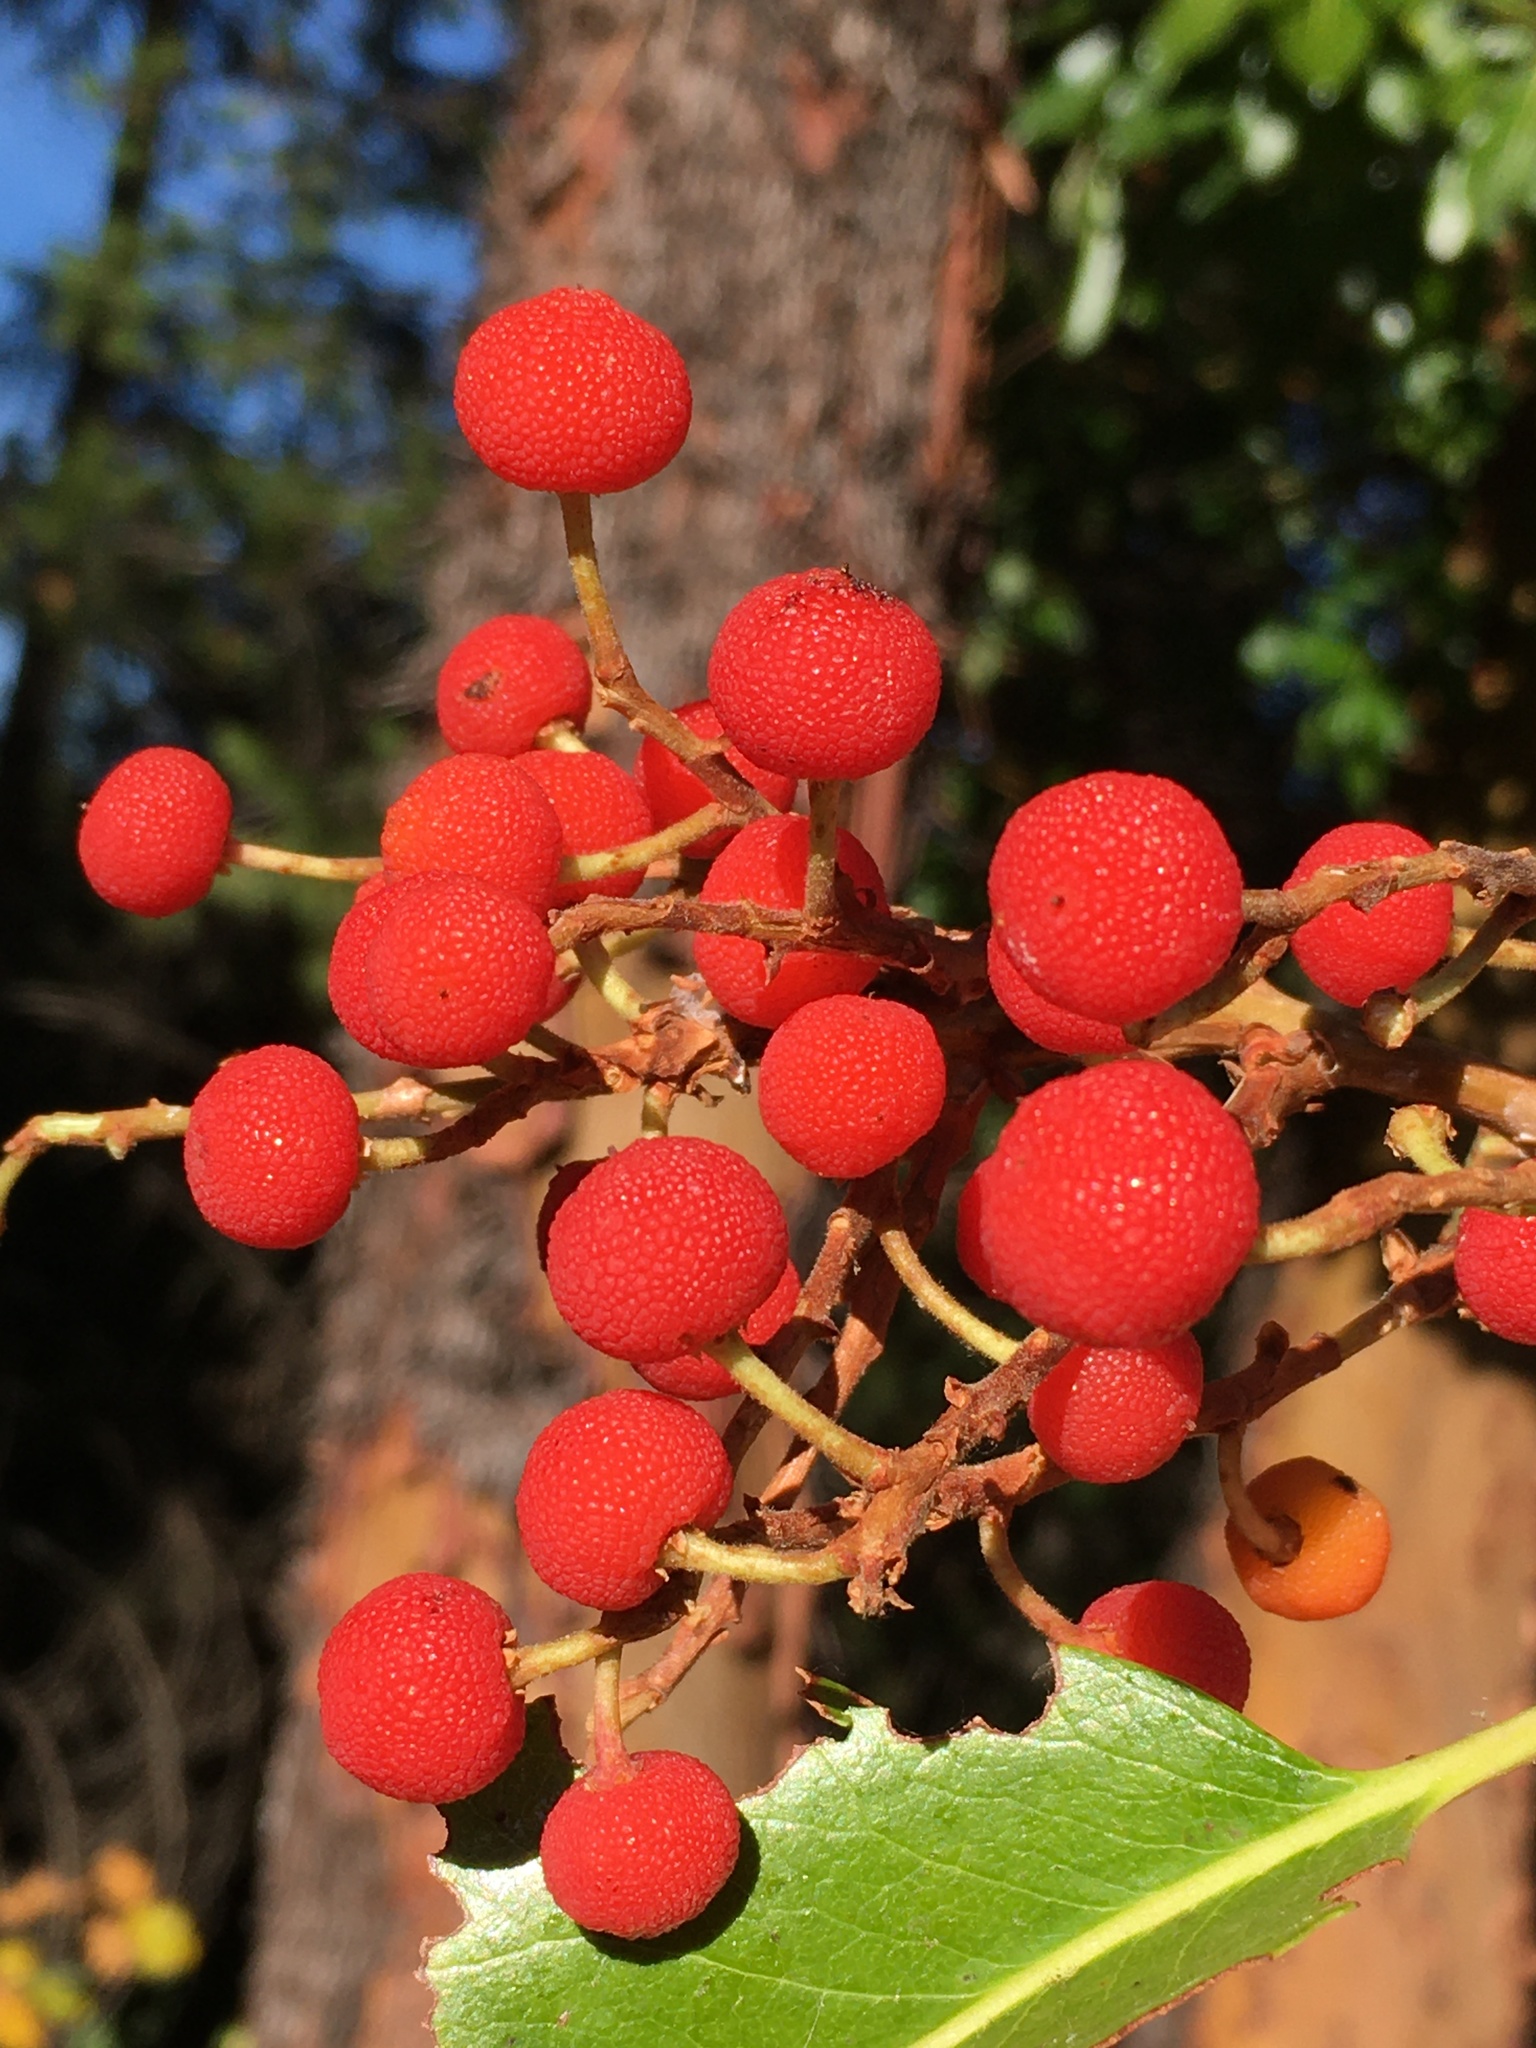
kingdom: Plantae
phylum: Tracheophyta
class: Magnoliopsida
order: Ericales
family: Ericaceae
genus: Arbutus
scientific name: Arbutus menziesii
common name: Pacific madrone
